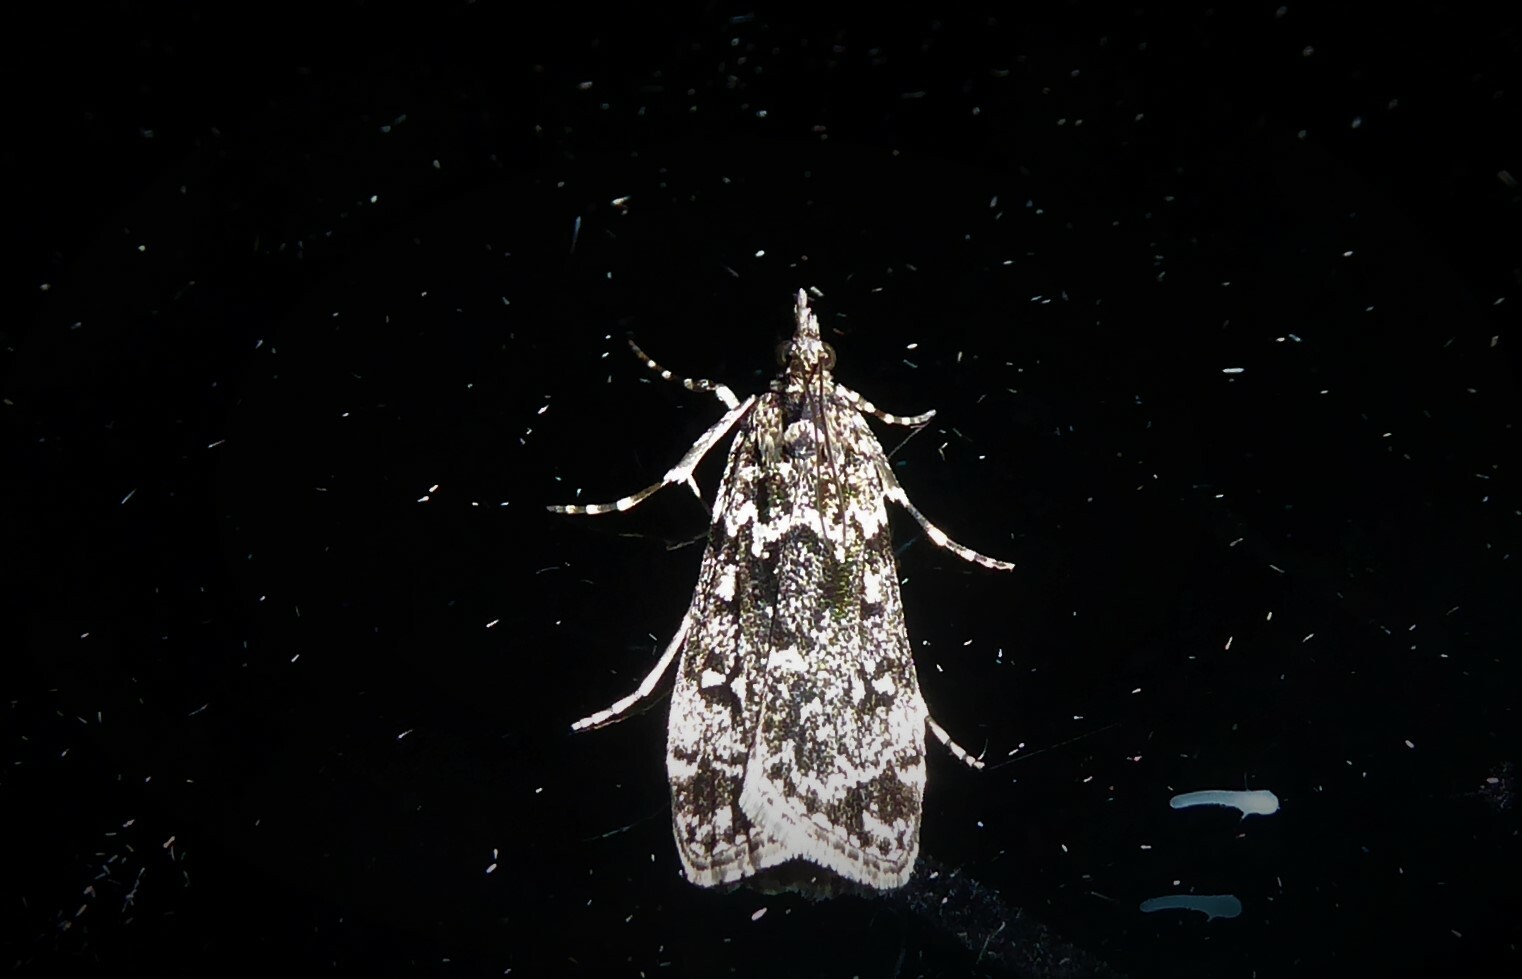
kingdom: Animalia
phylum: Arthropoda
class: Insecta
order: Lepidoptera
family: Crambidae
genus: Eudonia
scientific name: Eudonia philerga
